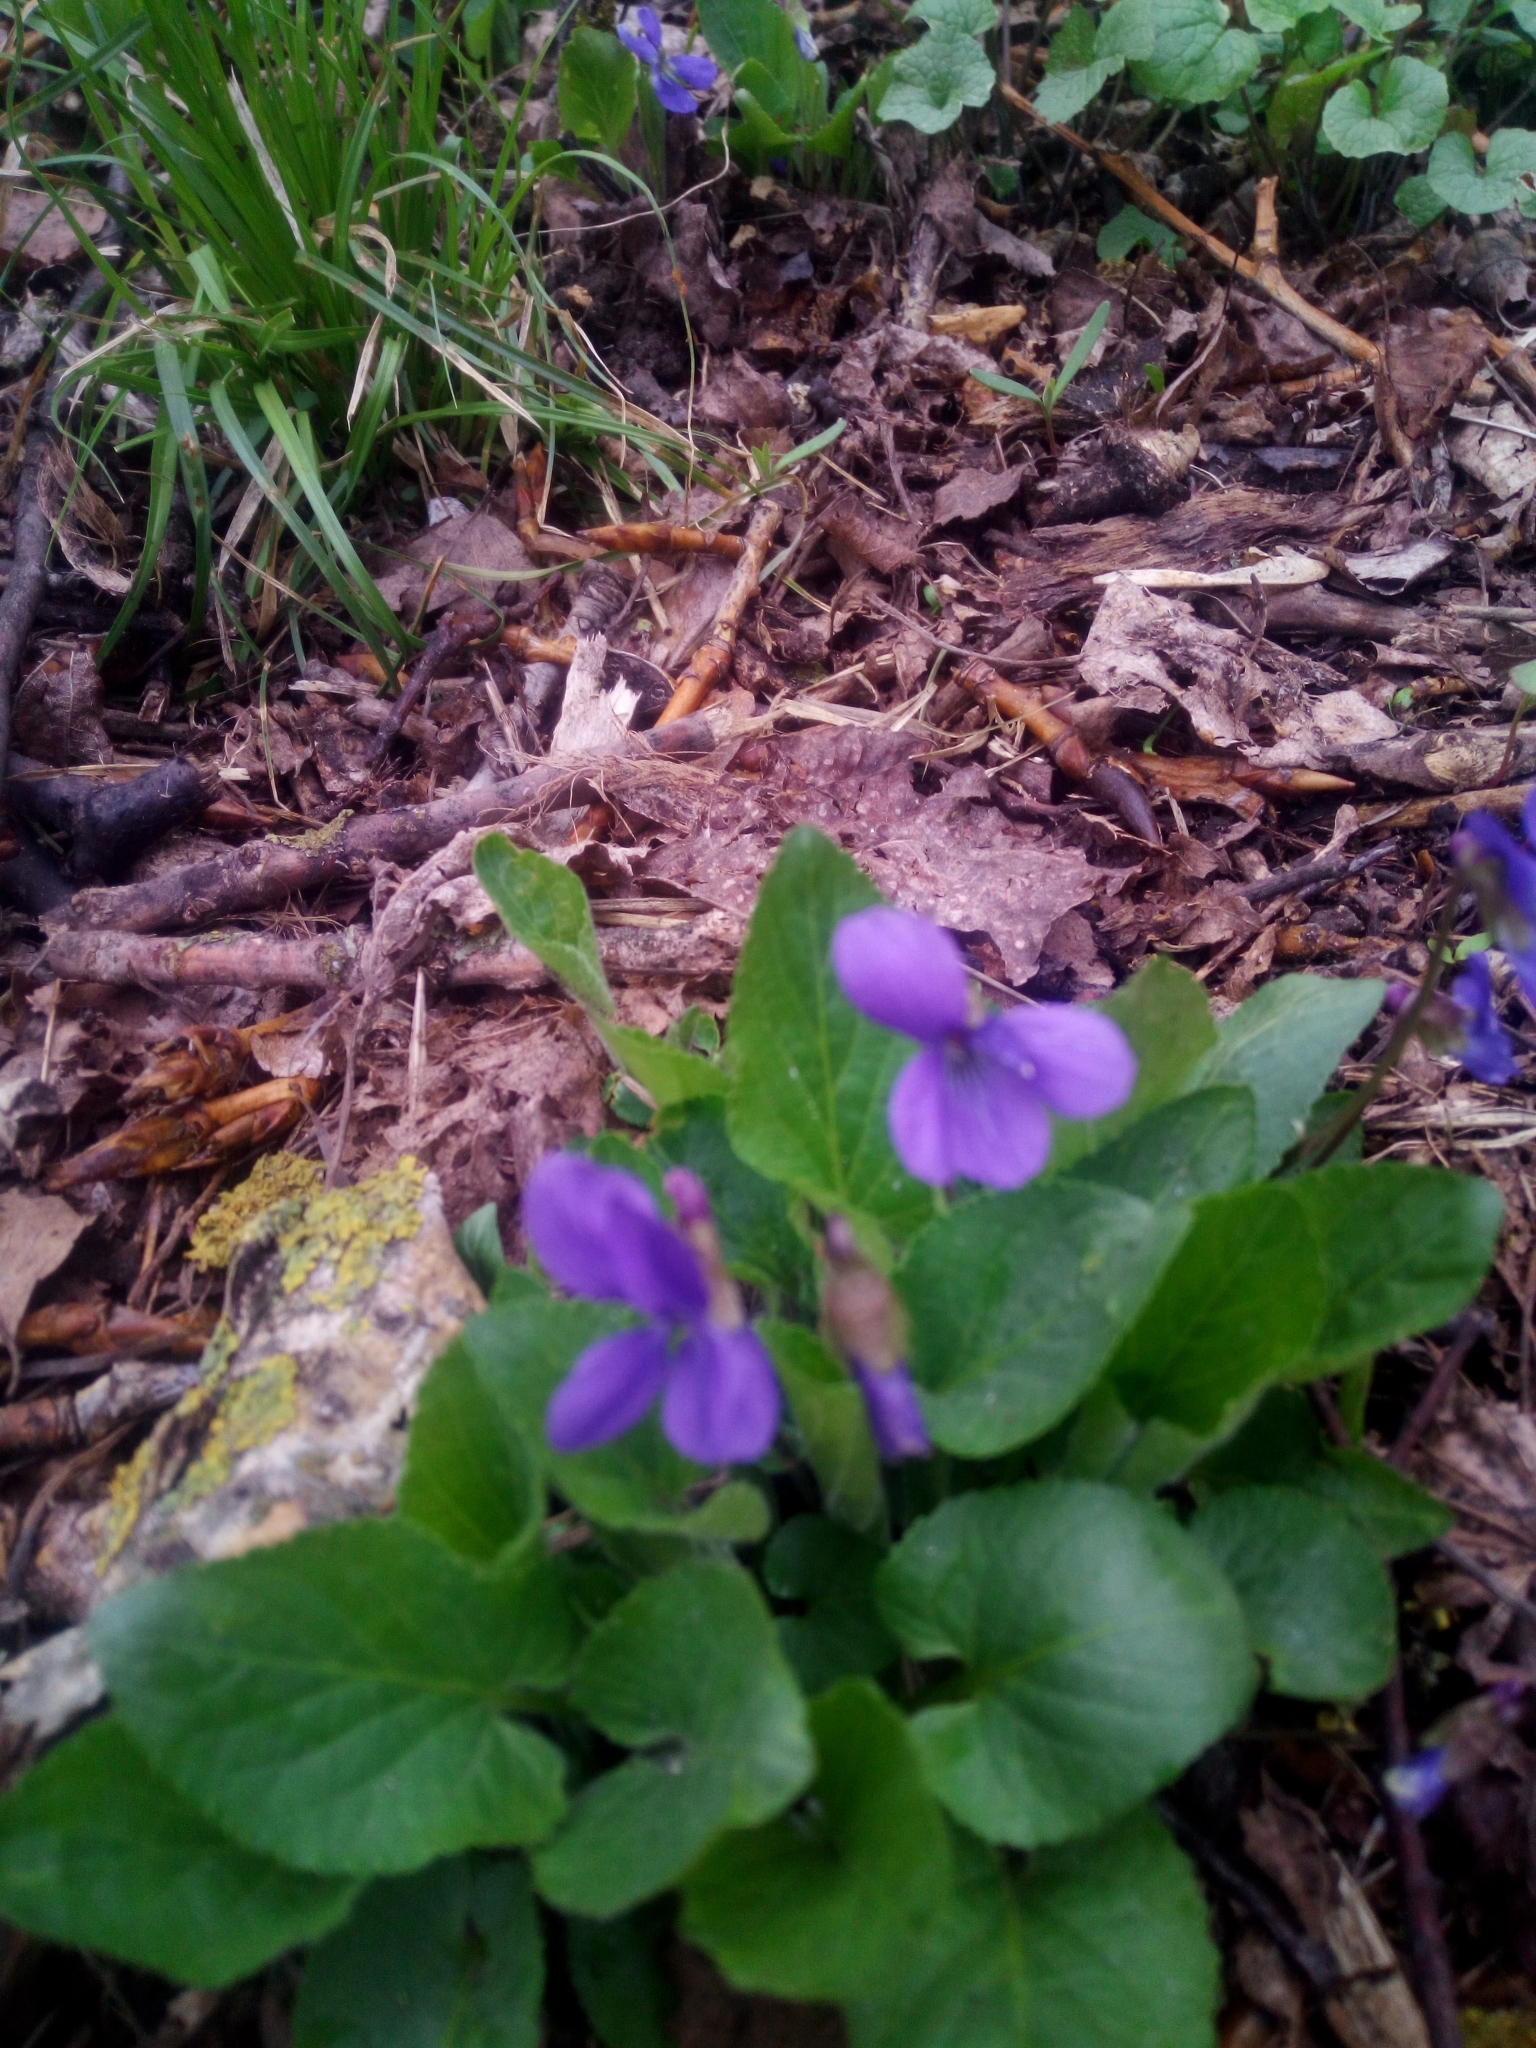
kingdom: Plantae
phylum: Tracheophyta
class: Magnoliopsida
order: Malpighiales
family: Violaceae
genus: Viola
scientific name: Viola hirta
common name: Hairy violet
